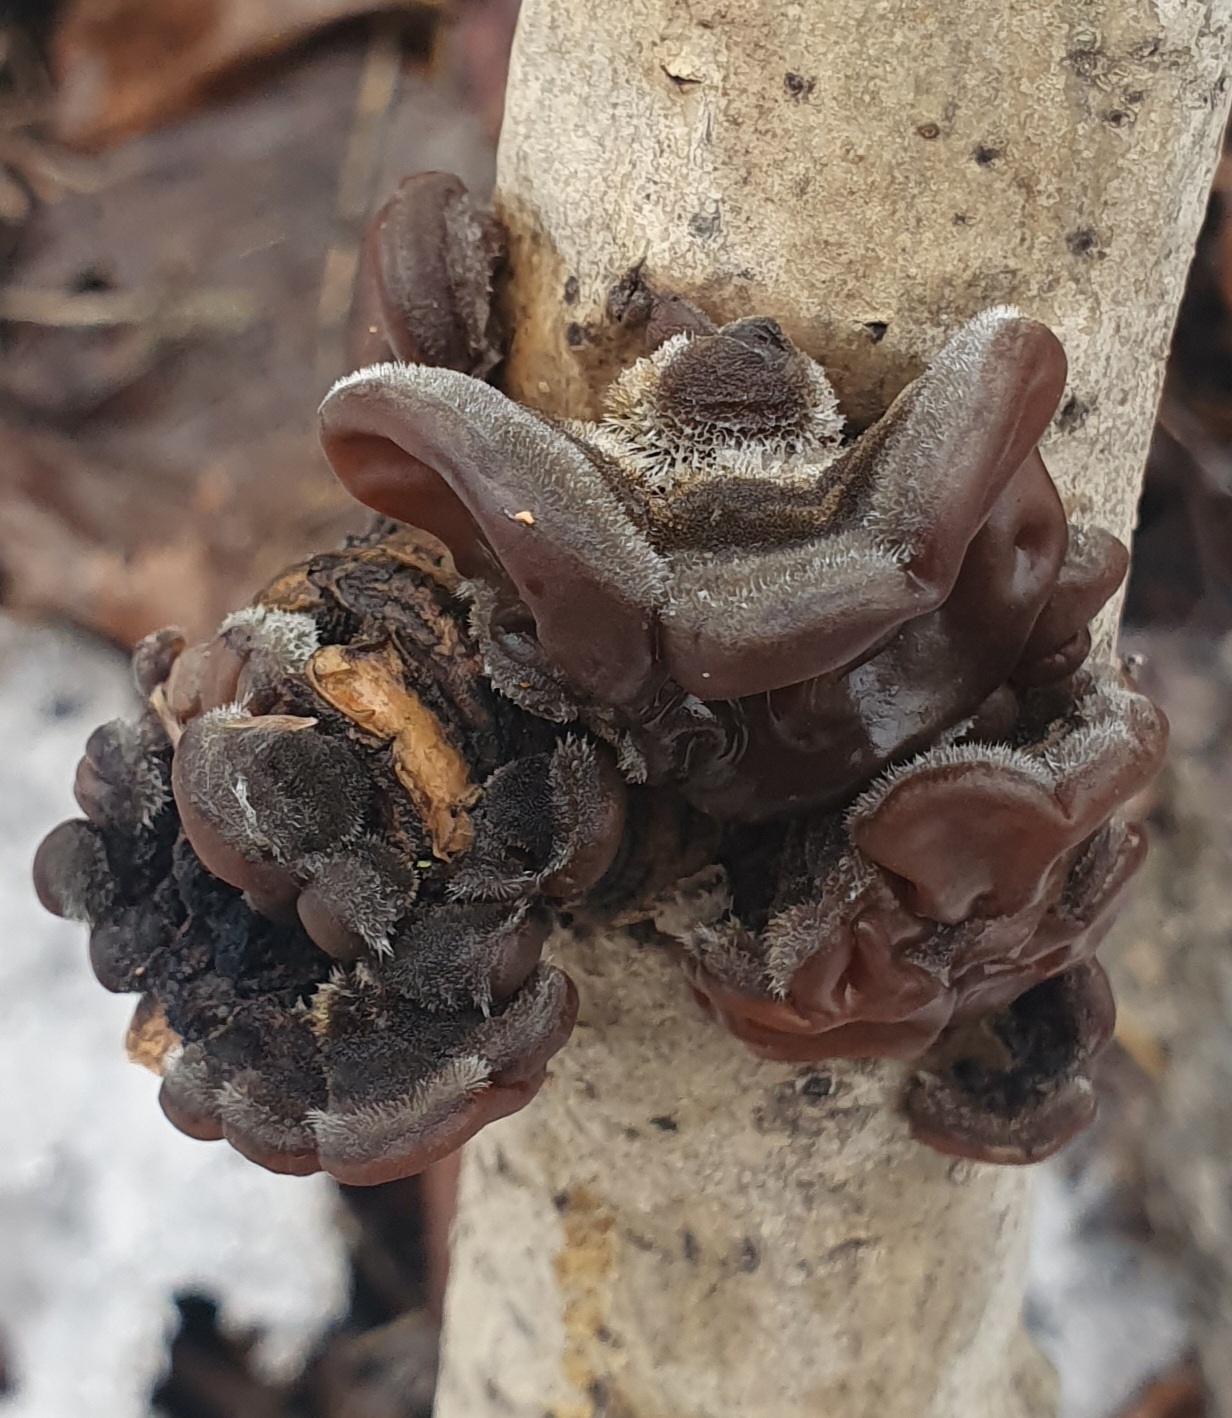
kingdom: Fungi
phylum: Basidiomycota
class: Agaricomycetes
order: Auriculariales
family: Auriculariaceae
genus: Auricularia
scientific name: Auricularia mesenterica
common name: Tripe fungus
